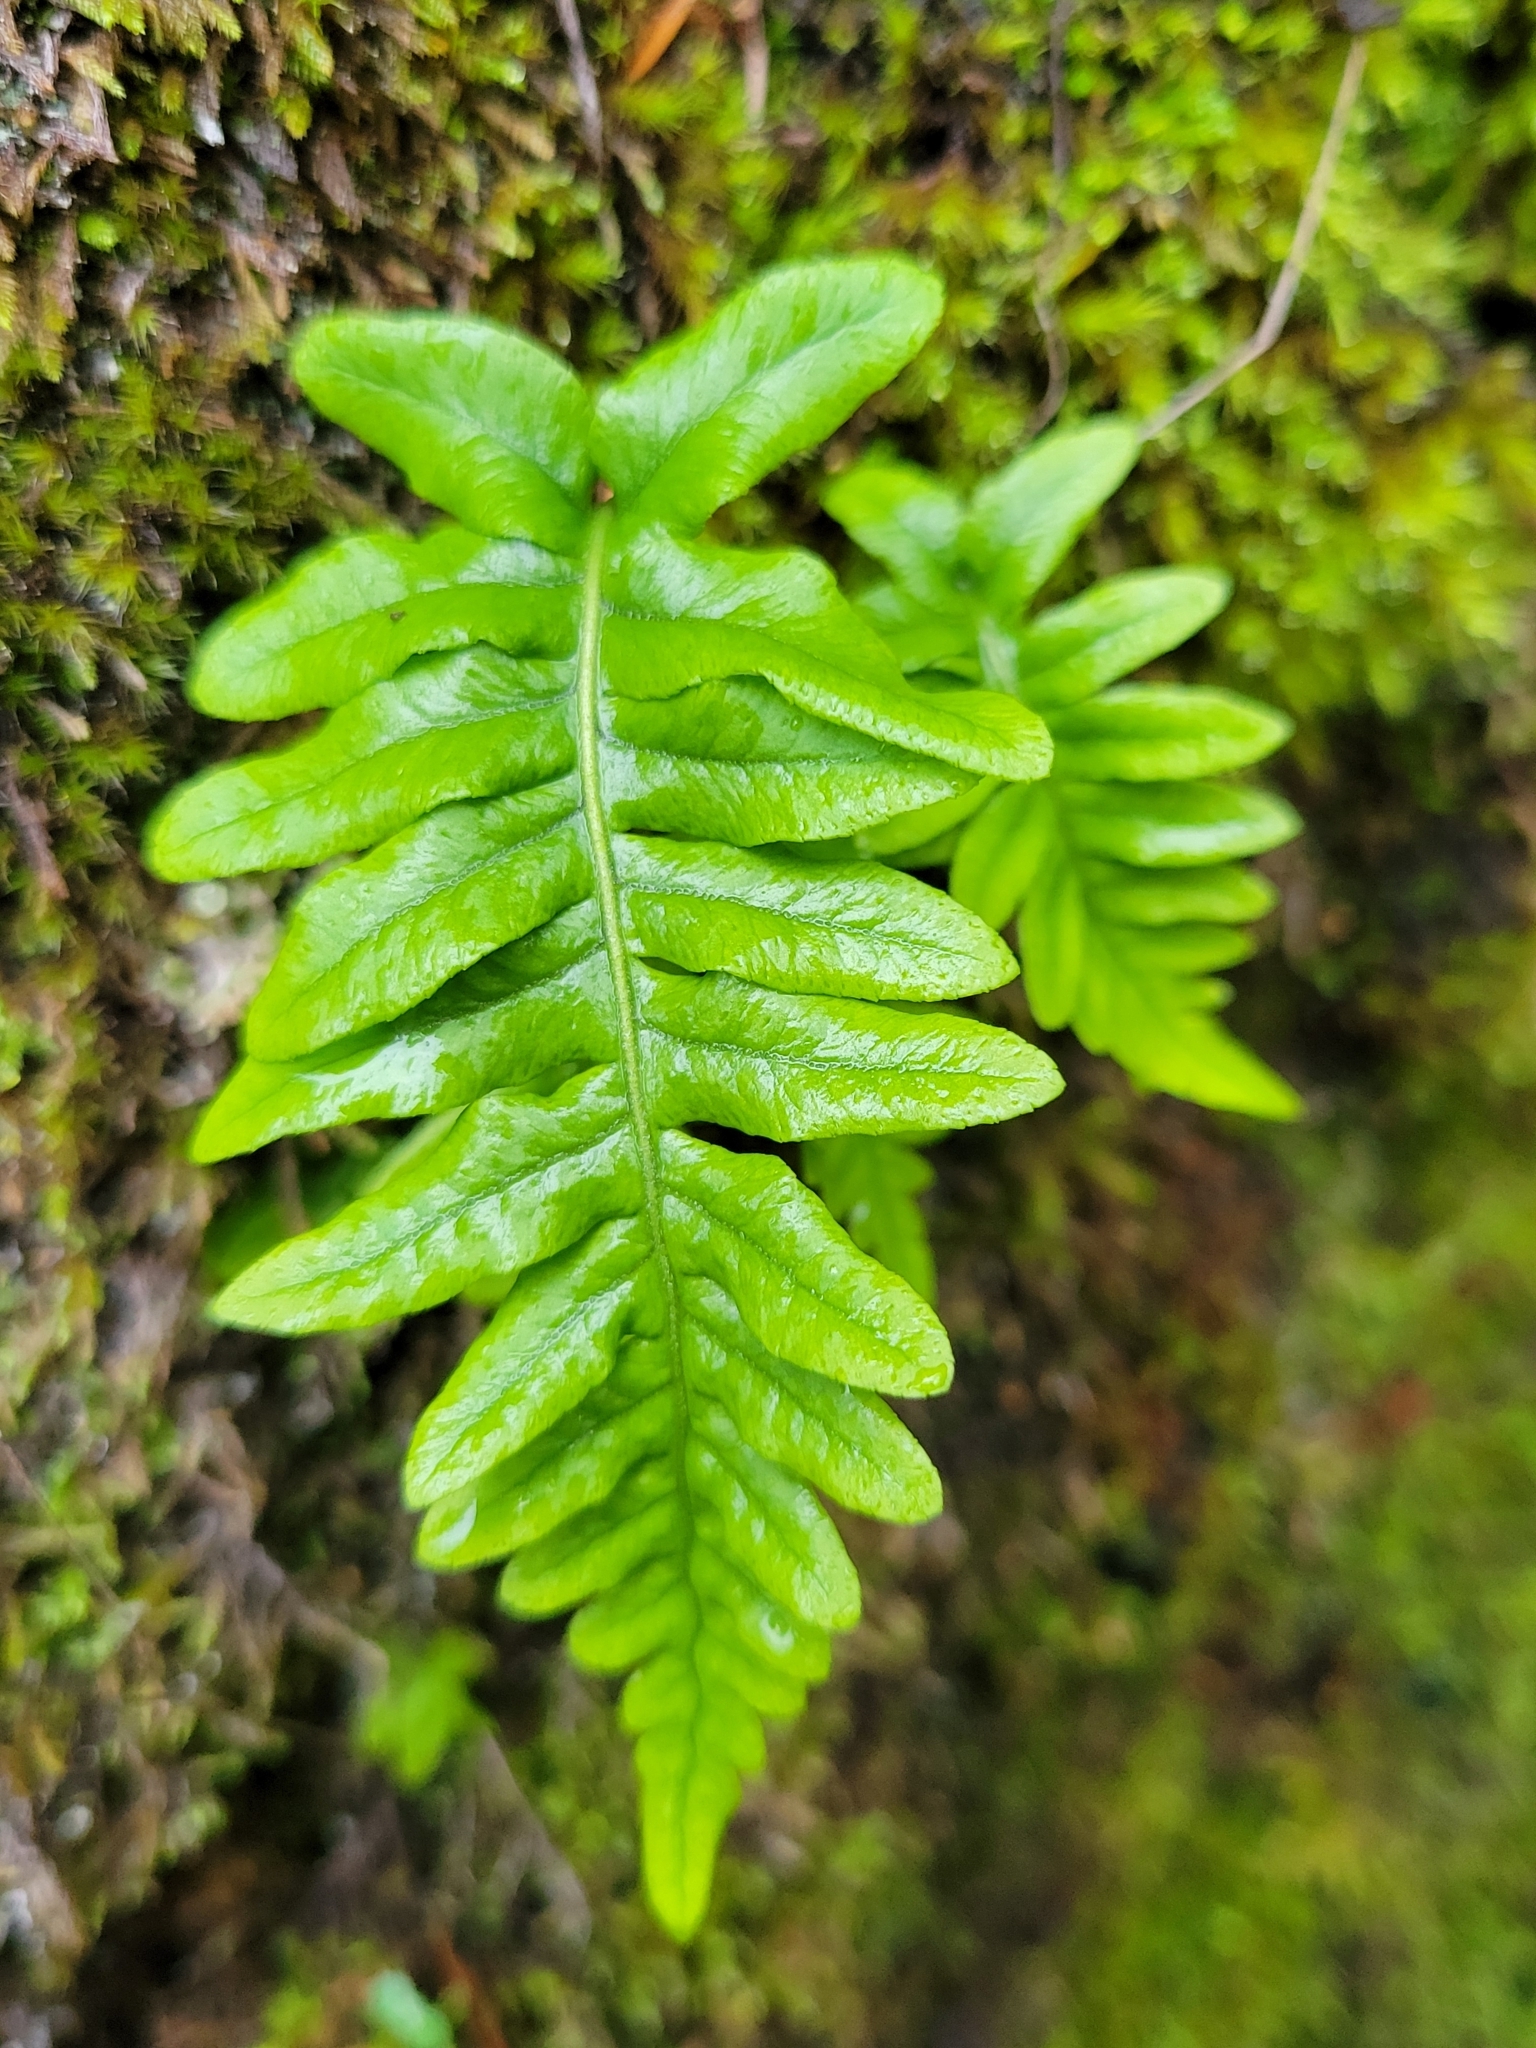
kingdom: Plantae
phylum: Tracheophyta
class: Polypodiopsida
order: Polypodiales
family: Polypodiaceae
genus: Polypodium
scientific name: Polypodium glycyrrhiza
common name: Licorice fern
